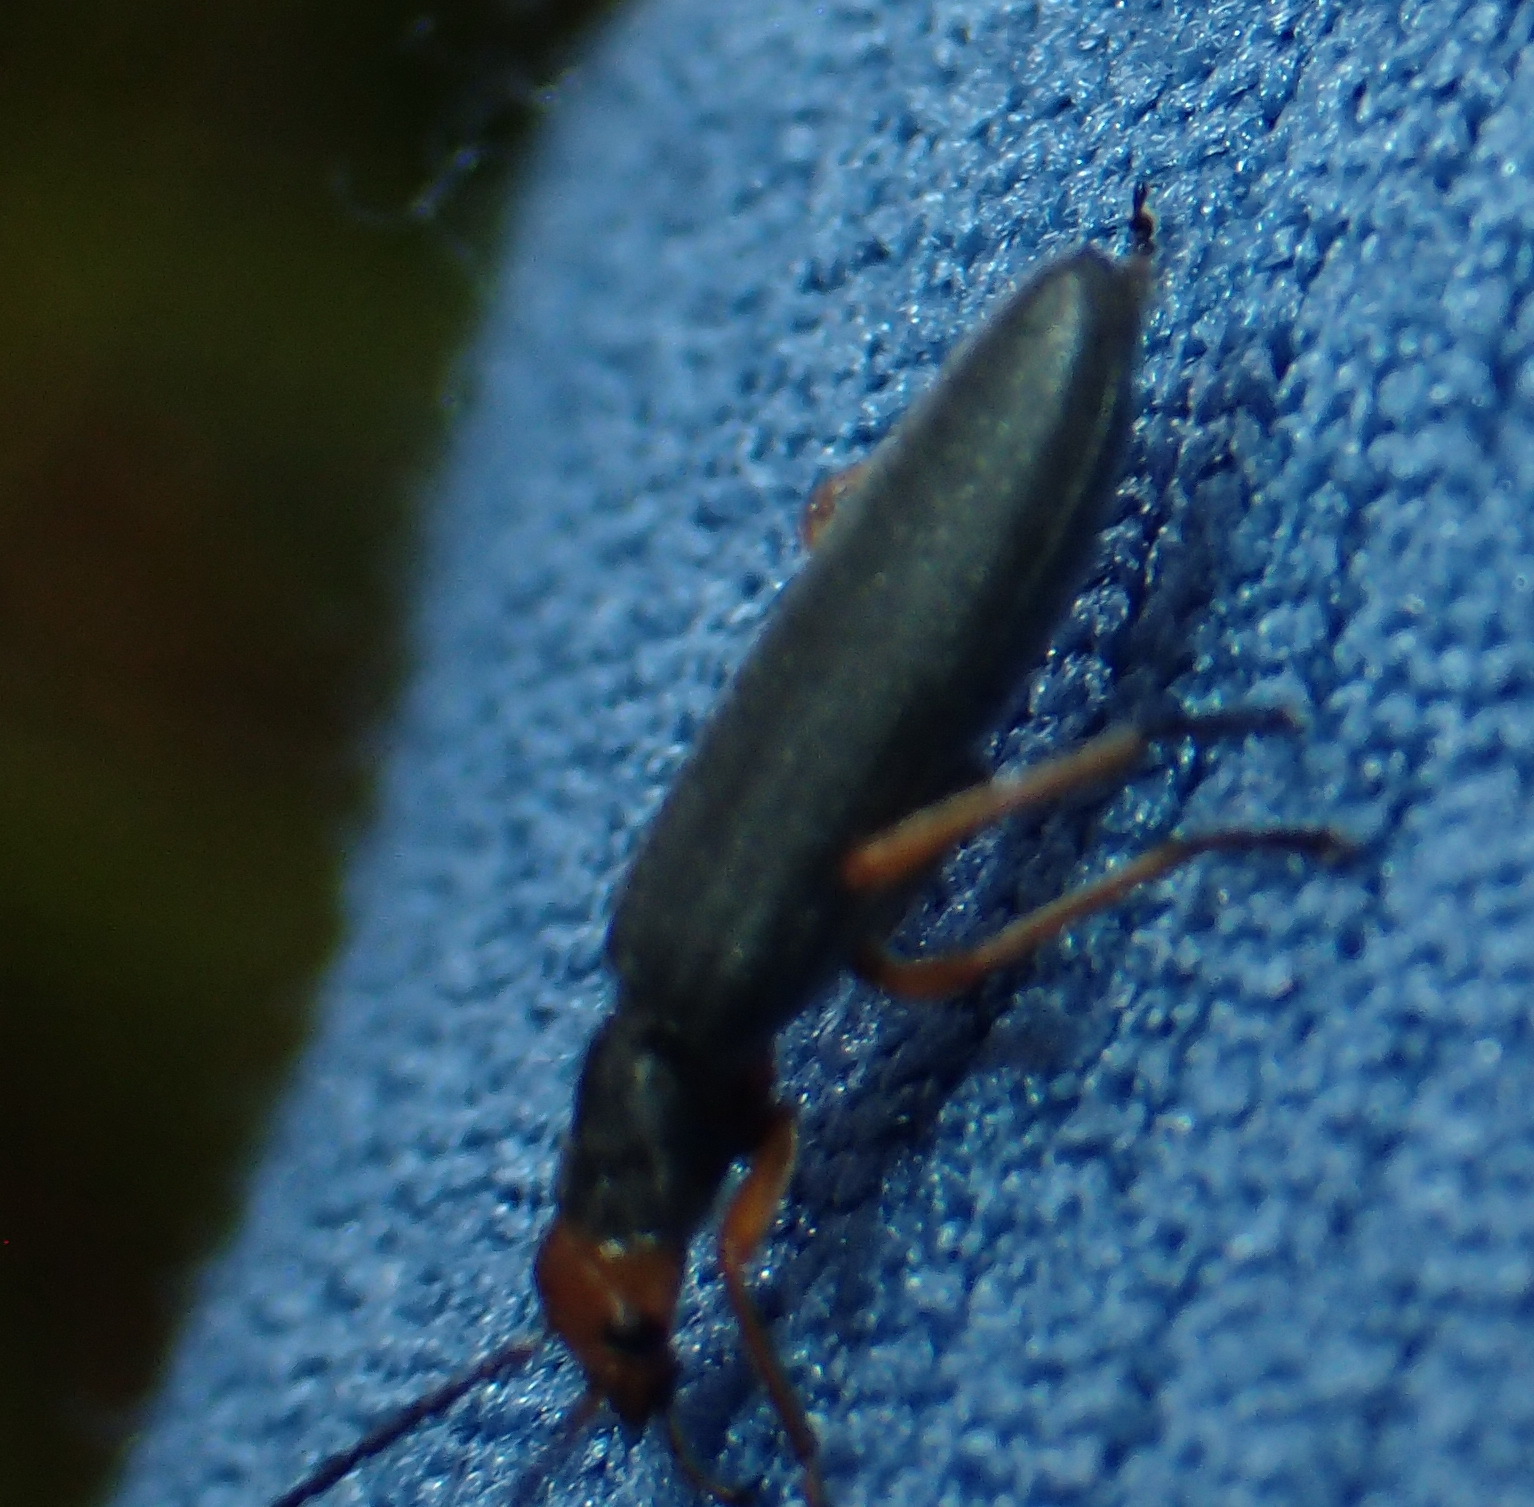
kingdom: Animalia
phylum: Arthropoda
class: Insecta
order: Coleoptera
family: Oedemeridae
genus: Melananthia
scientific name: Melananthia
